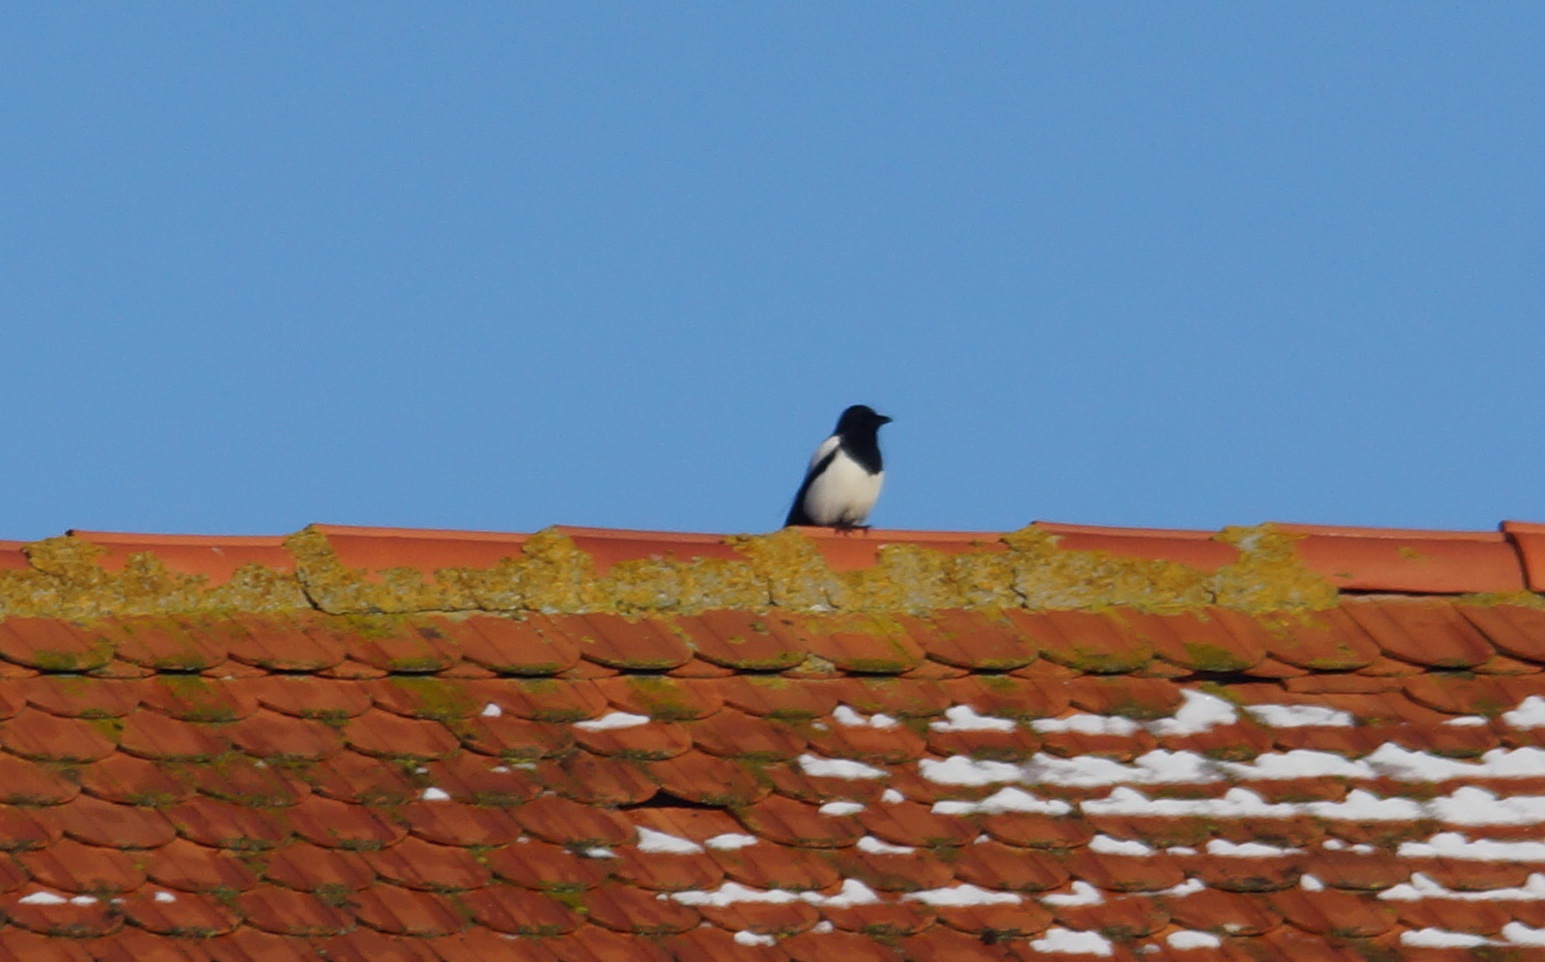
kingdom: Animalia
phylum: Chordata
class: Aves
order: Passeriformes
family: Corvidae
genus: Pica
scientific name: Pica pica
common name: Eurasian magpie
